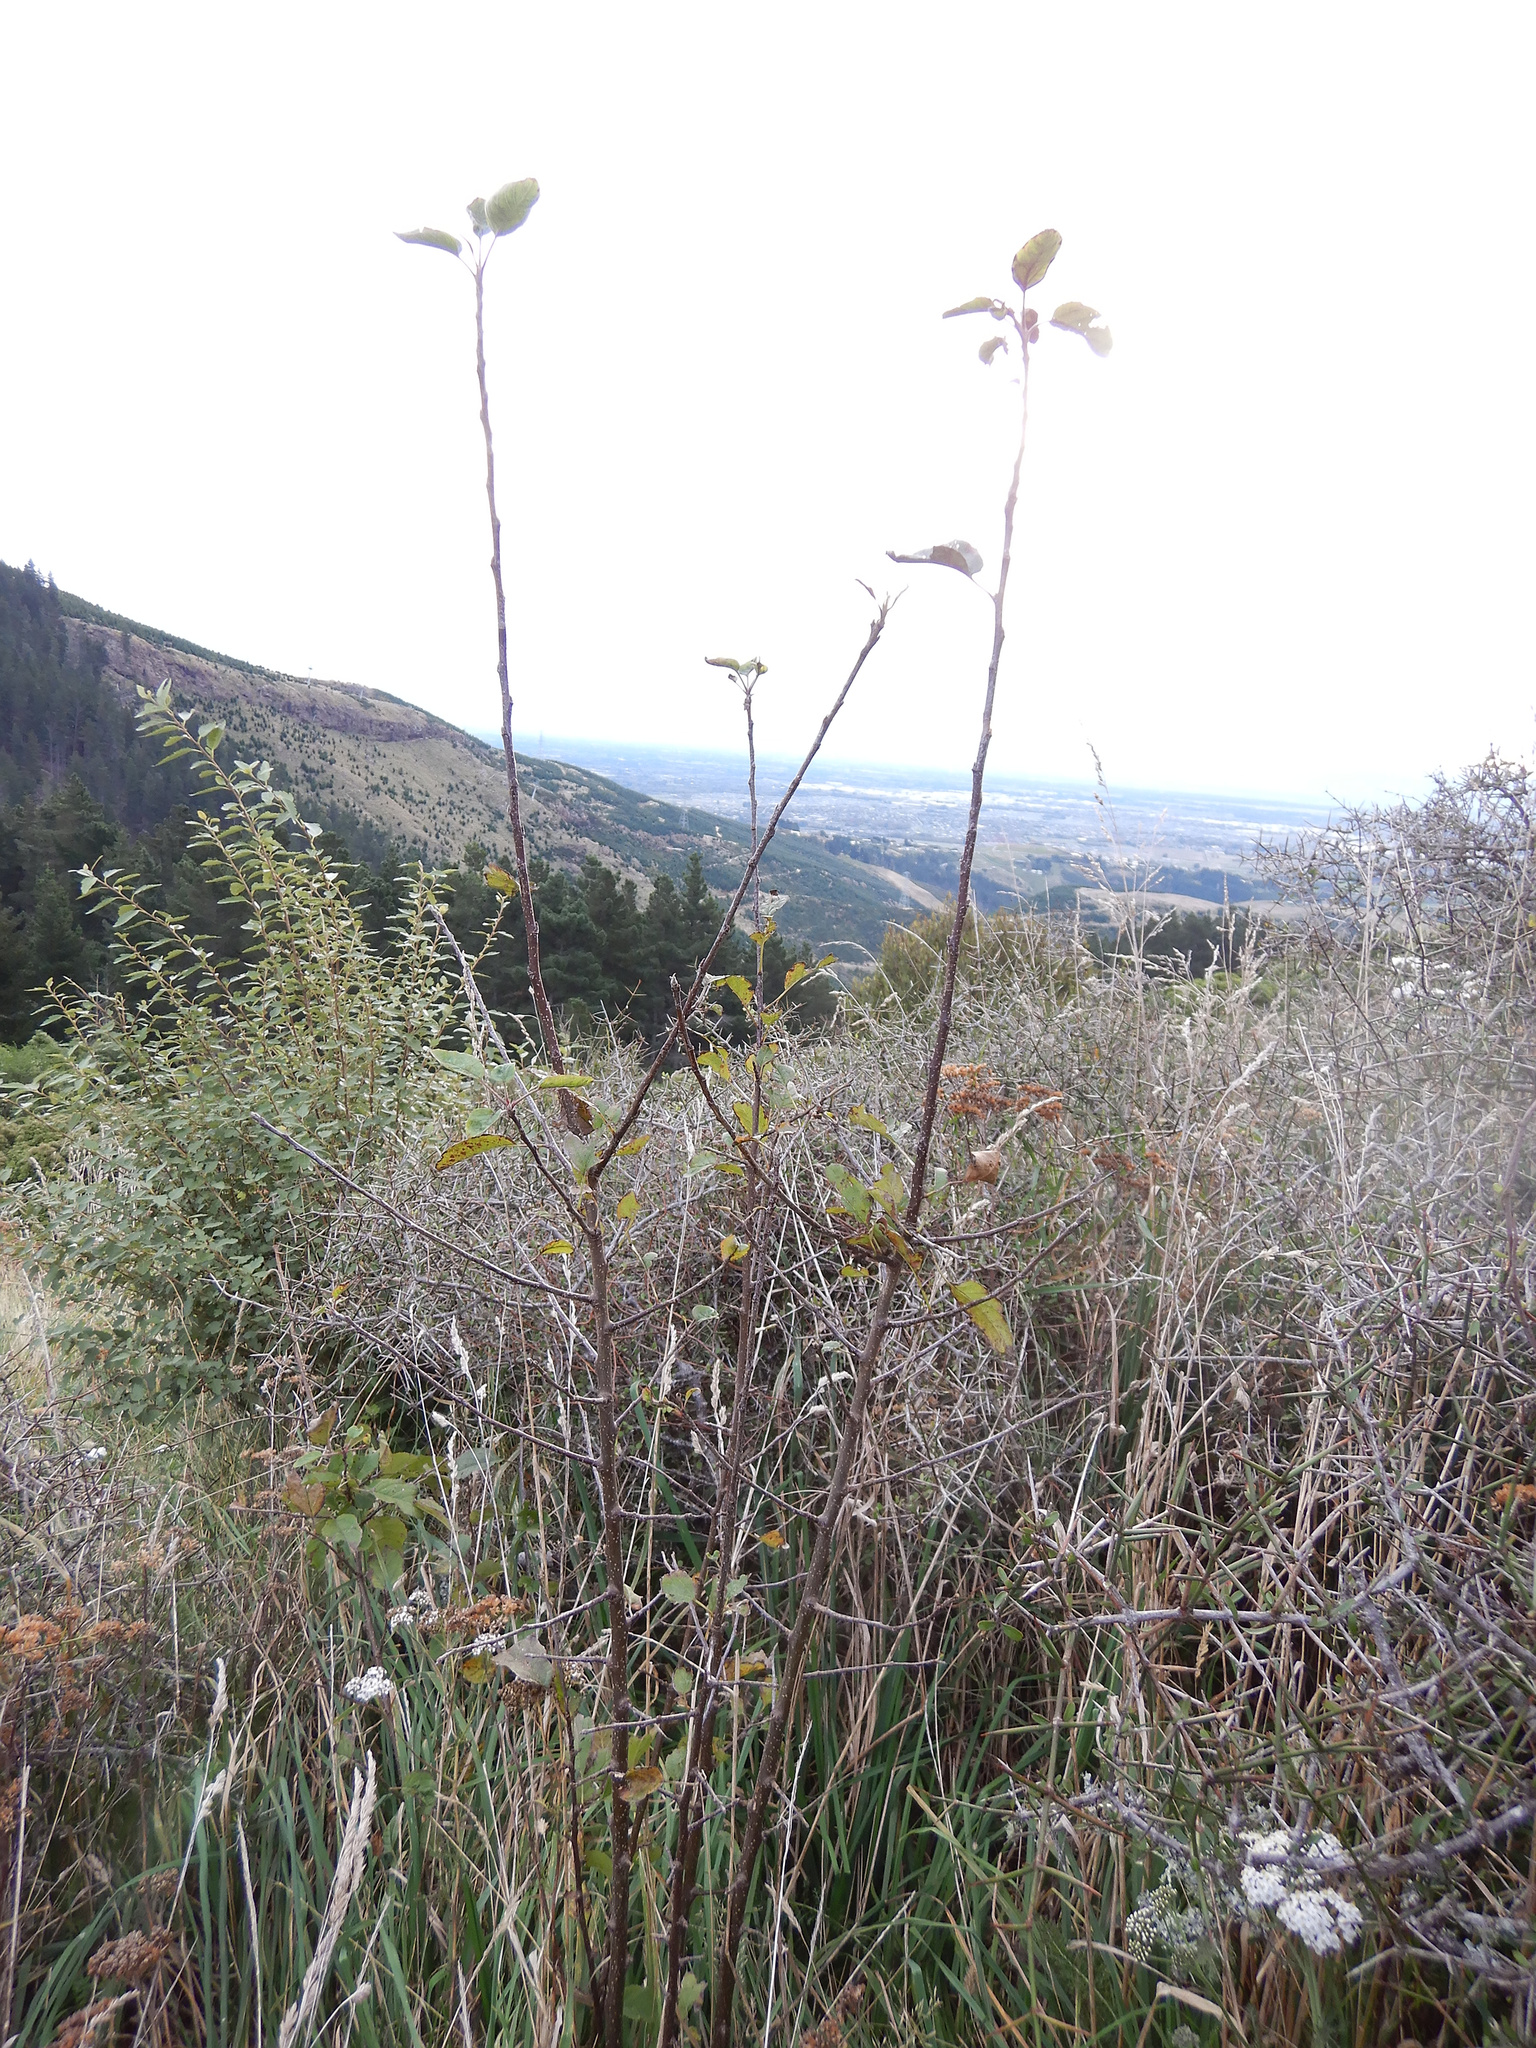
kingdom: Plantae
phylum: Tracheophyta
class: Magnoliopsida
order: Rosales
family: Rosaceae
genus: Malus
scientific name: Malus domestica
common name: Apple
